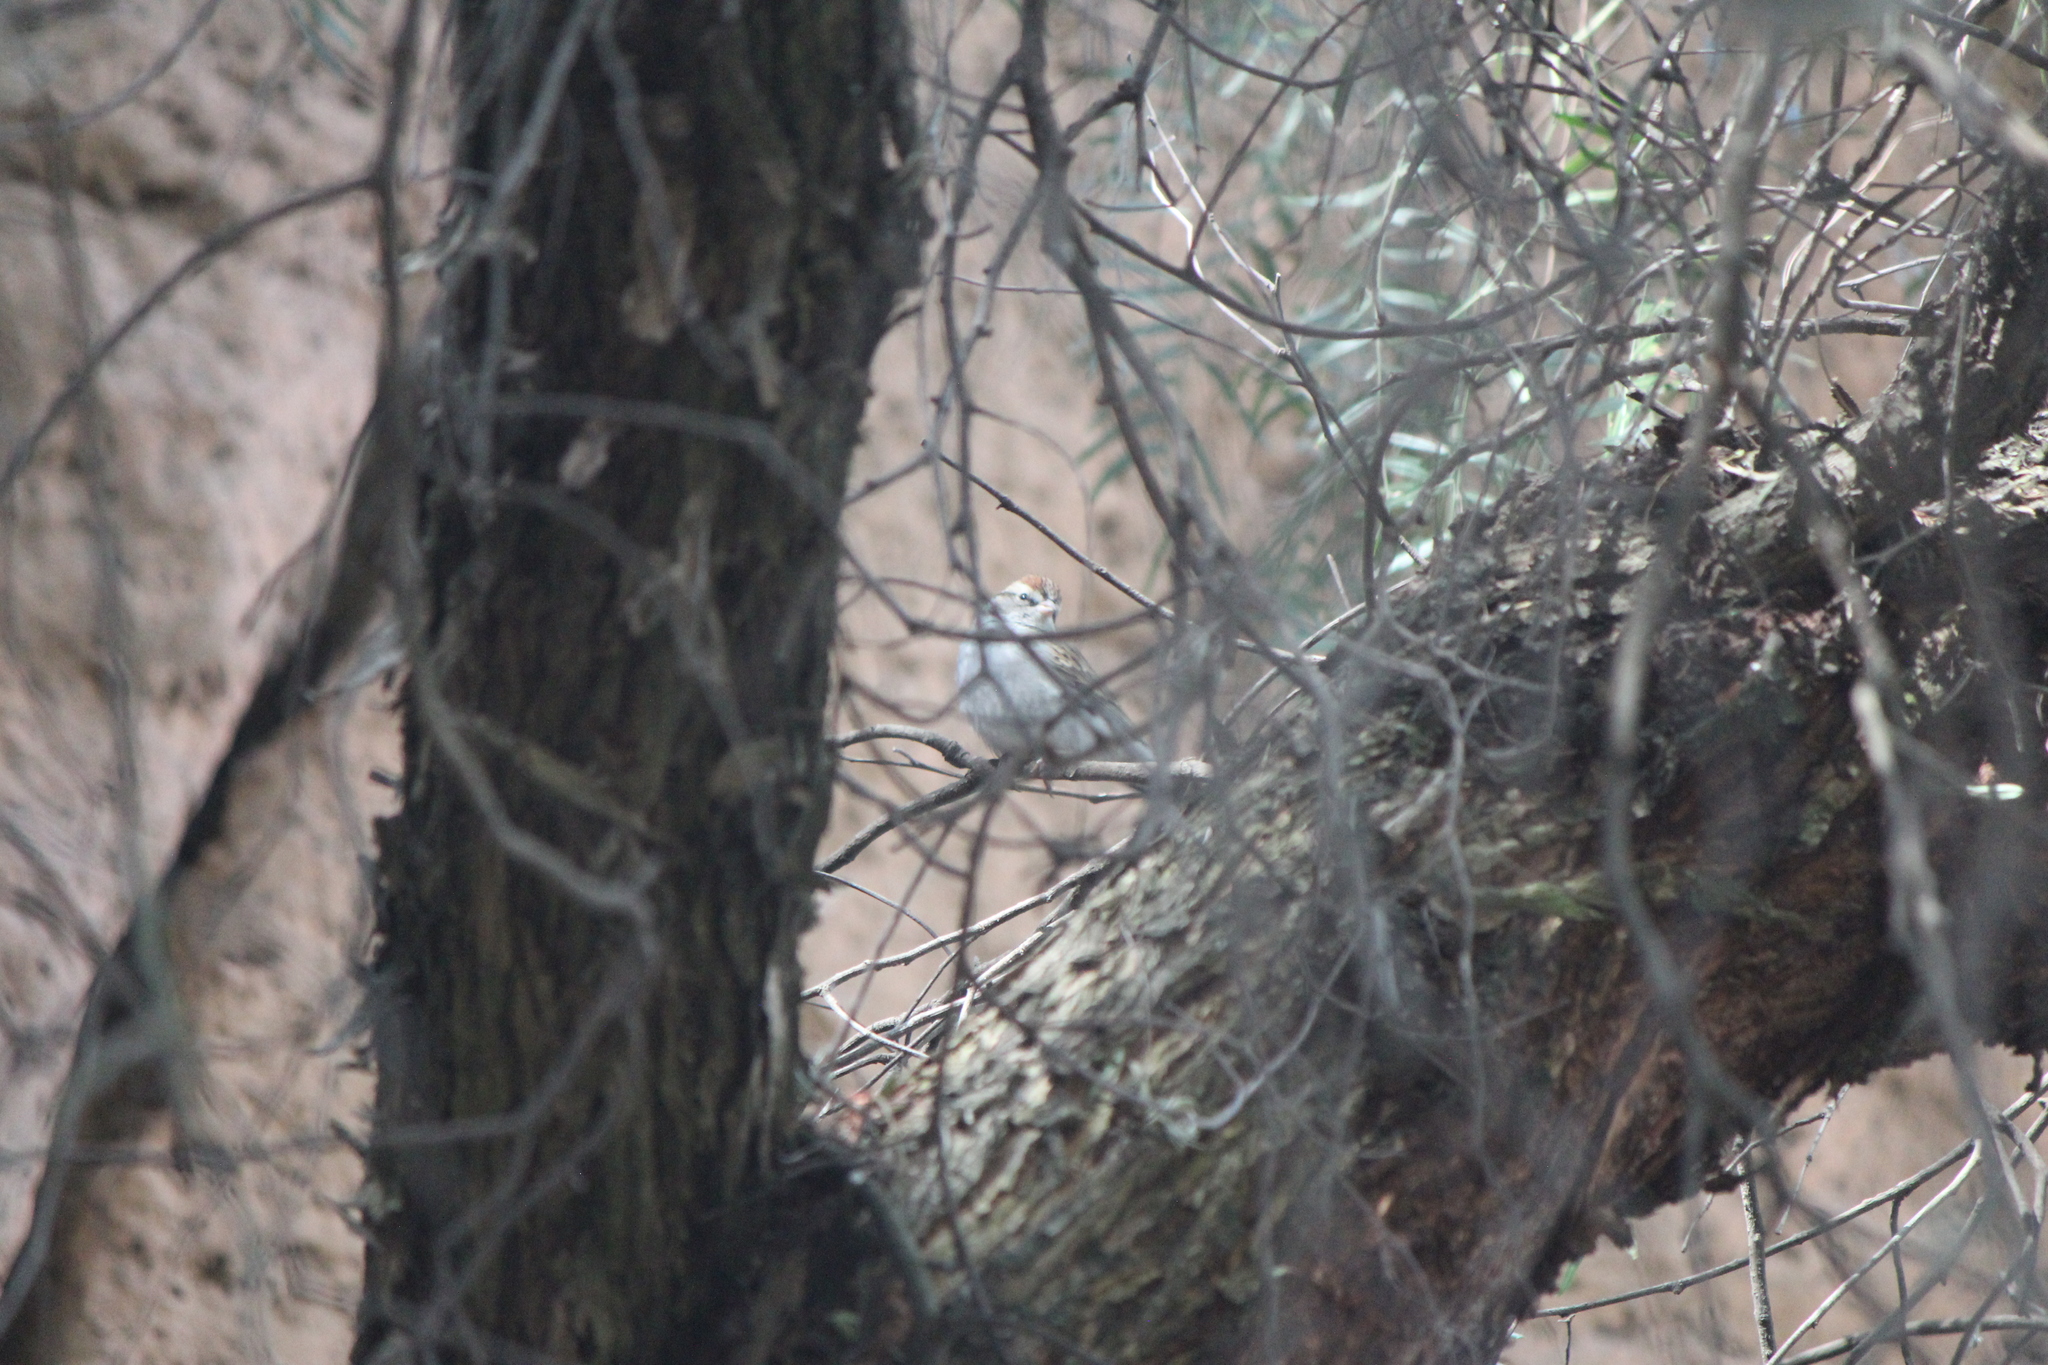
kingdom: Animalia
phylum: Chordata
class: Aves
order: Passeriformes
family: Passerellidae
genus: Spizella
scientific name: Spizella passerina
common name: Chipping sparrow
